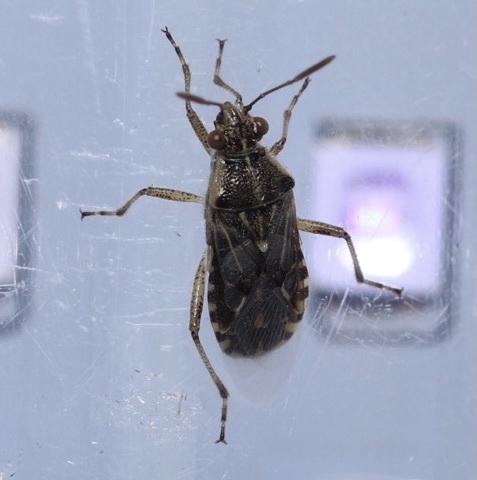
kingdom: Animalia
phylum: Arthropoda
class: Insecta
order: Hemiptera
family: Rhopalidae
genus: Liorhyssus
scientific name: Liorhyssus hyalinus
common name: Scentless plant bug
